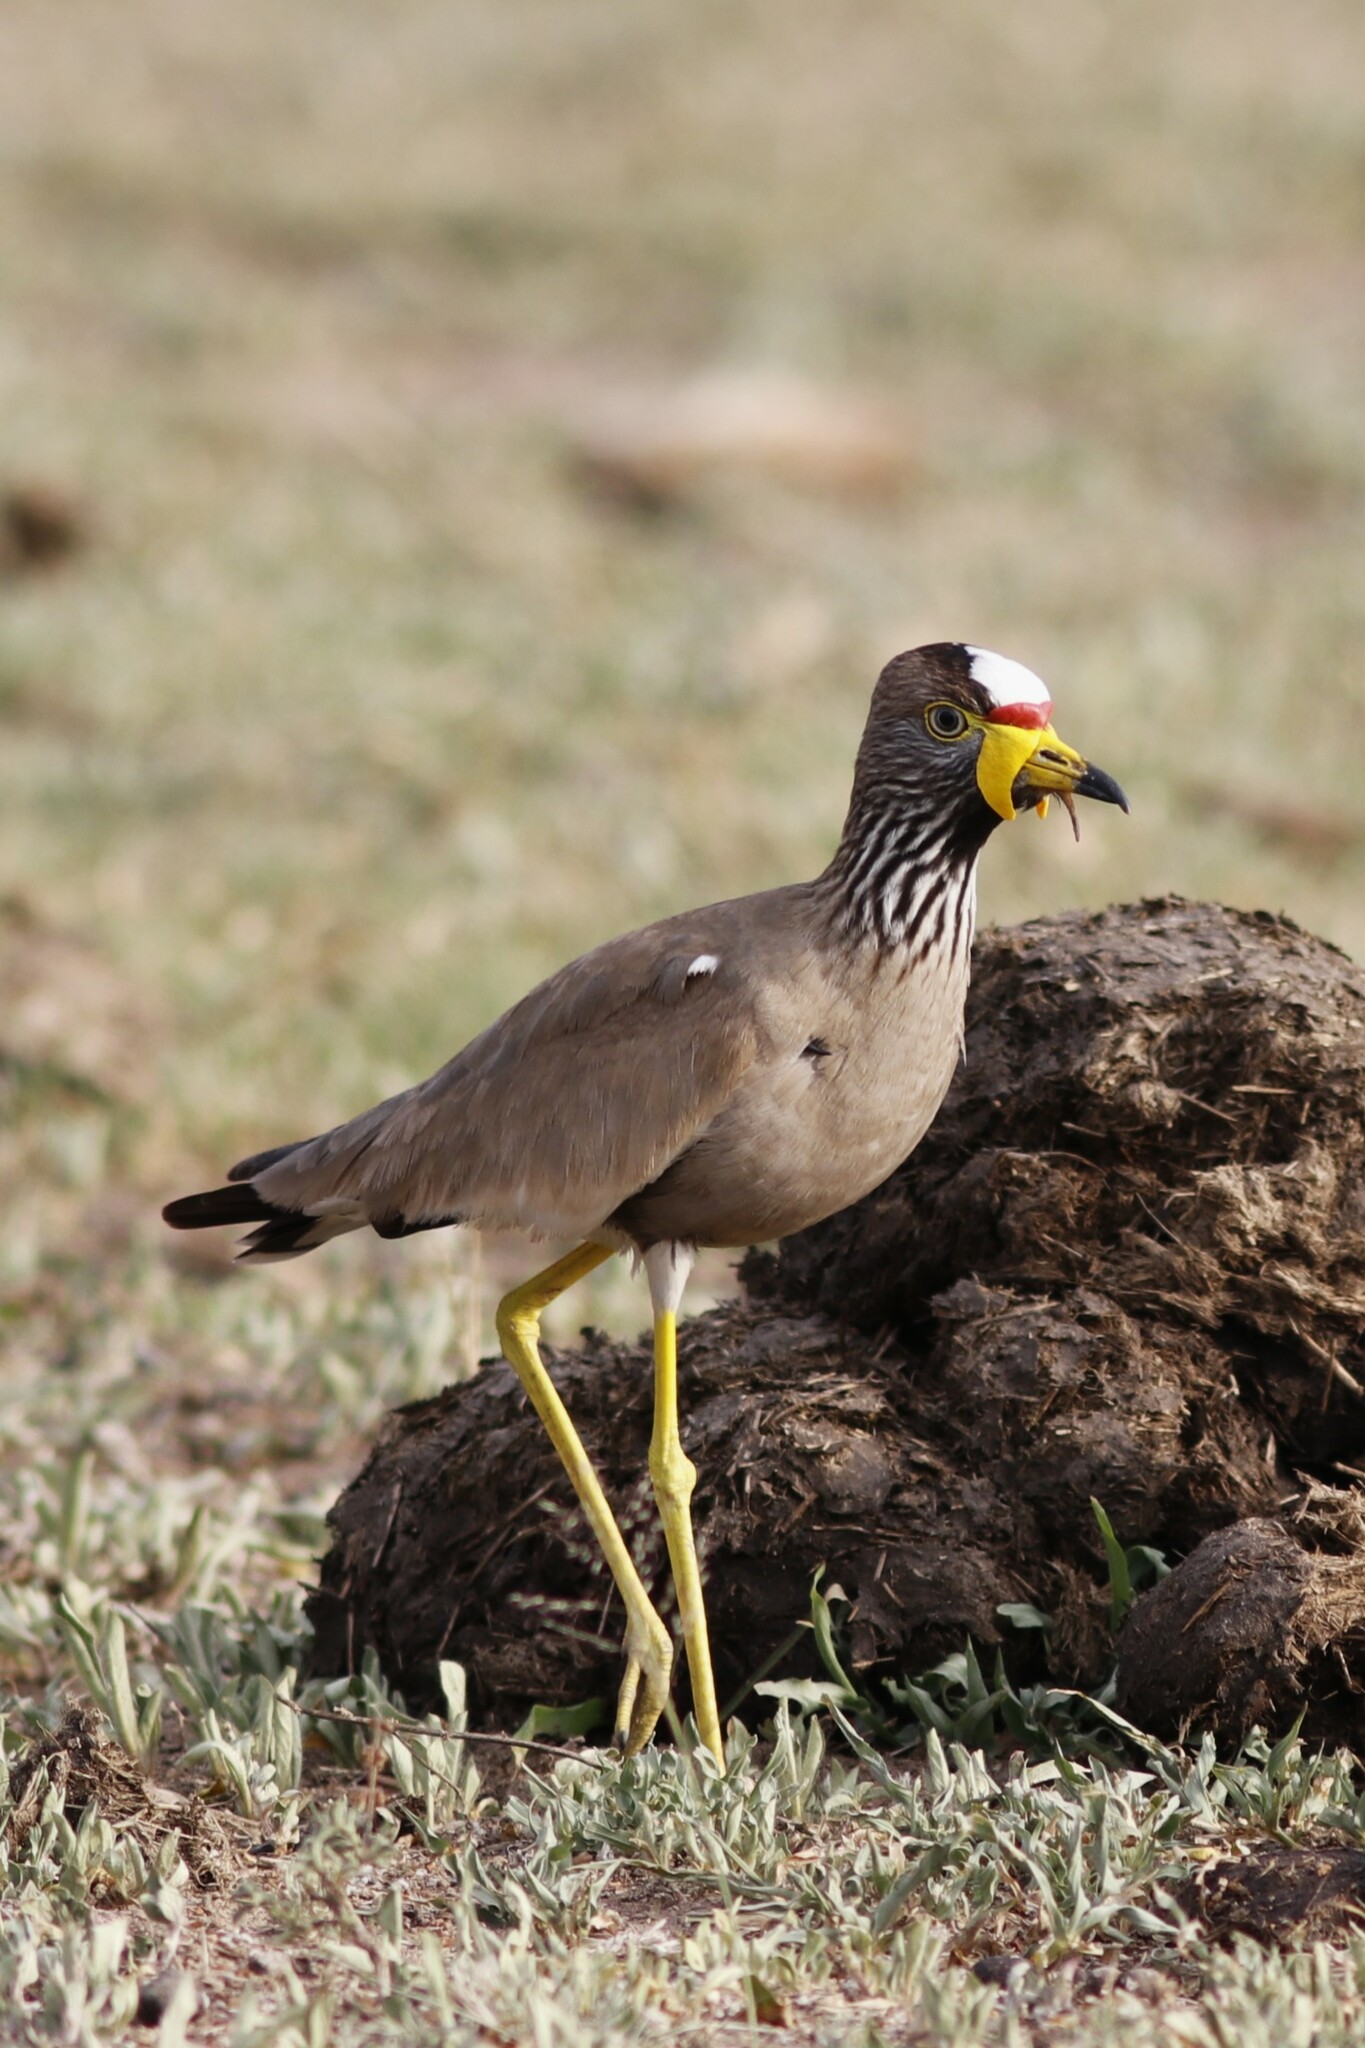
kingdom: Animalia
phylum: Chordata
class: Aves
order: Charadriiformes
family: Charadriidae
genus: Vanellus
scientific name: Vanellus senegallus
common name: African wattled lapwing
